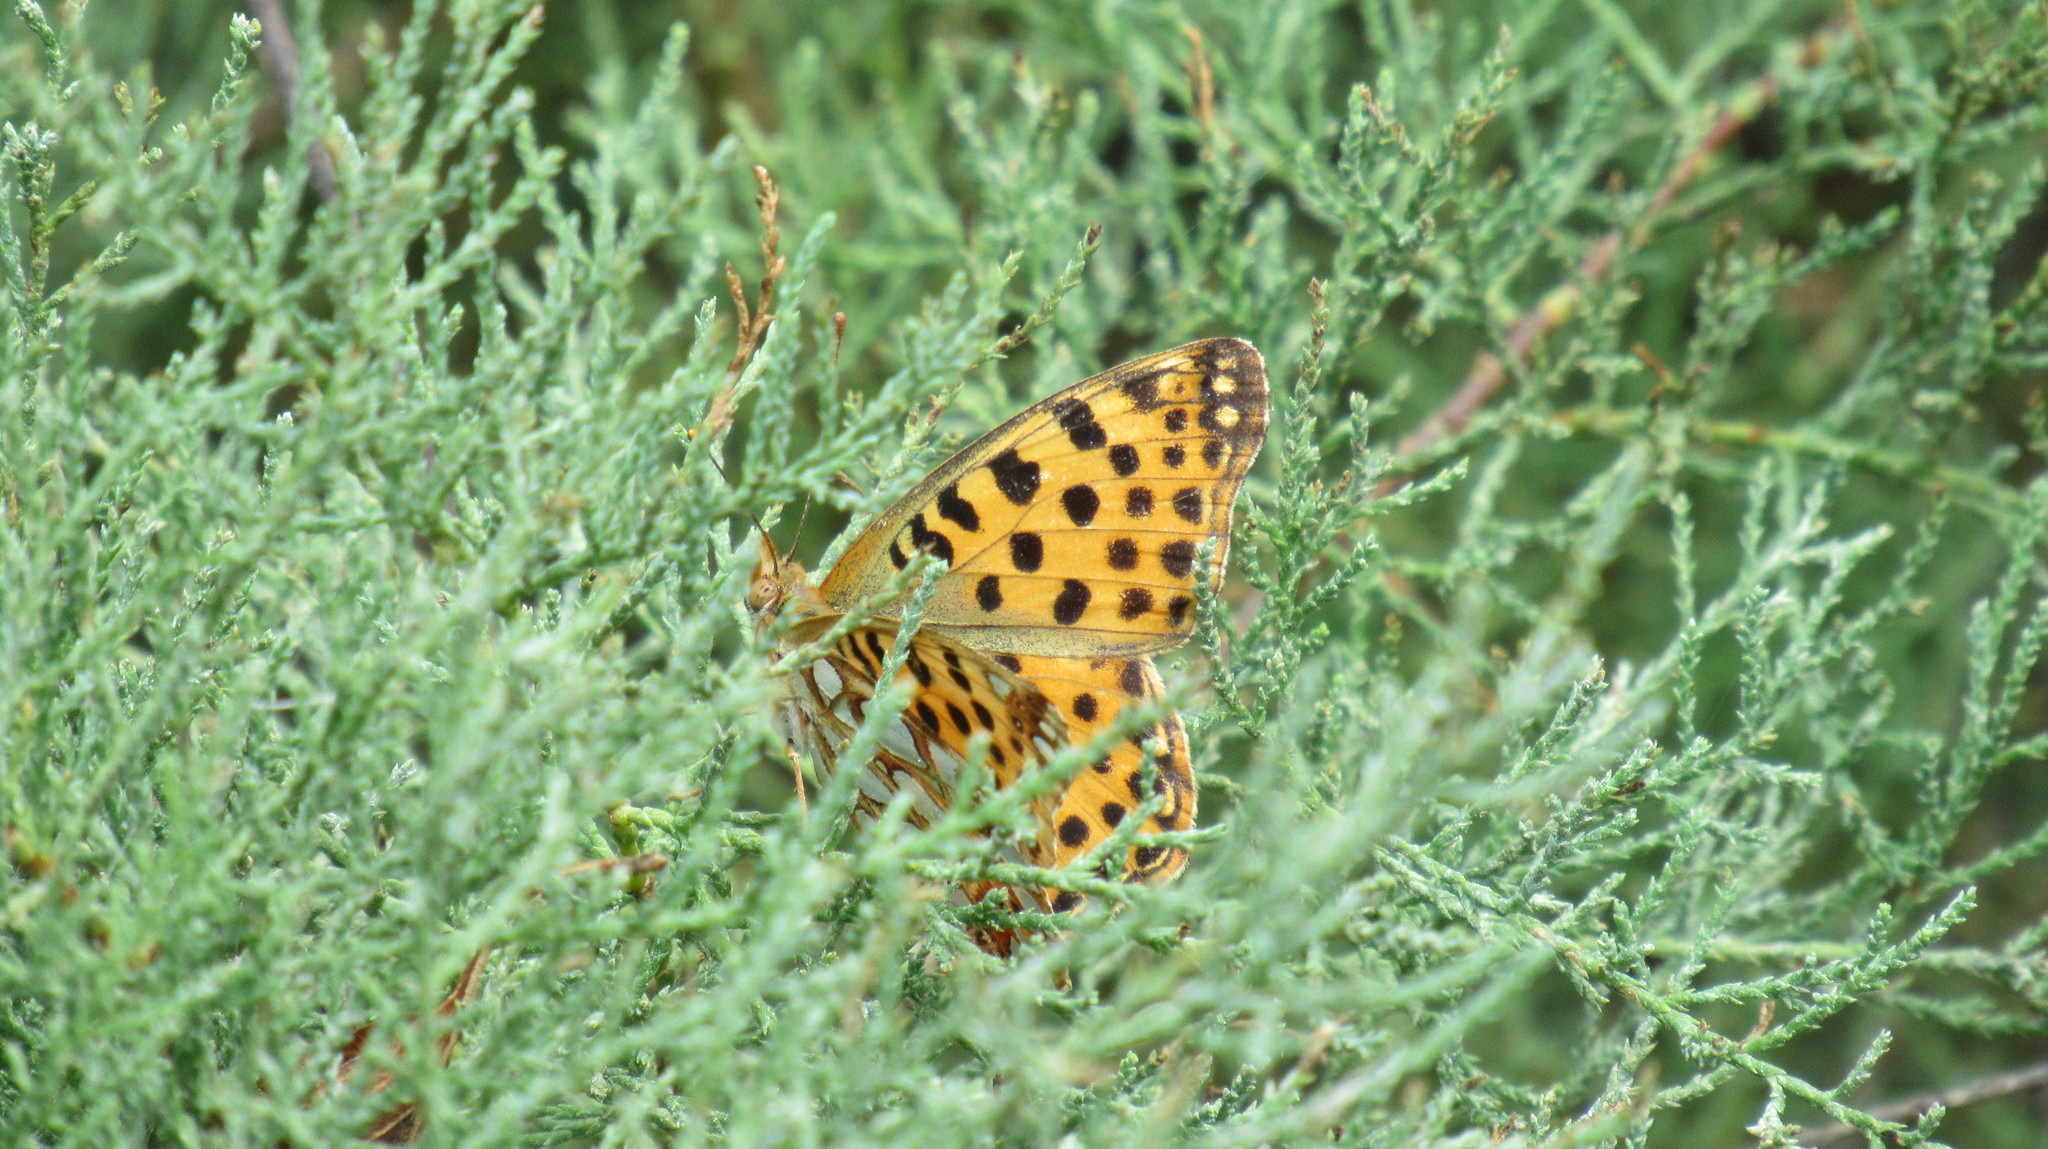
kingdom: Animalia
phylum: Arthropoda
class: Insecta
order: Lepidoptera
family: Nymphalidae
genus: Issoria
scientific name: Issoria lathonia
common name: Queen of spain fritillary
